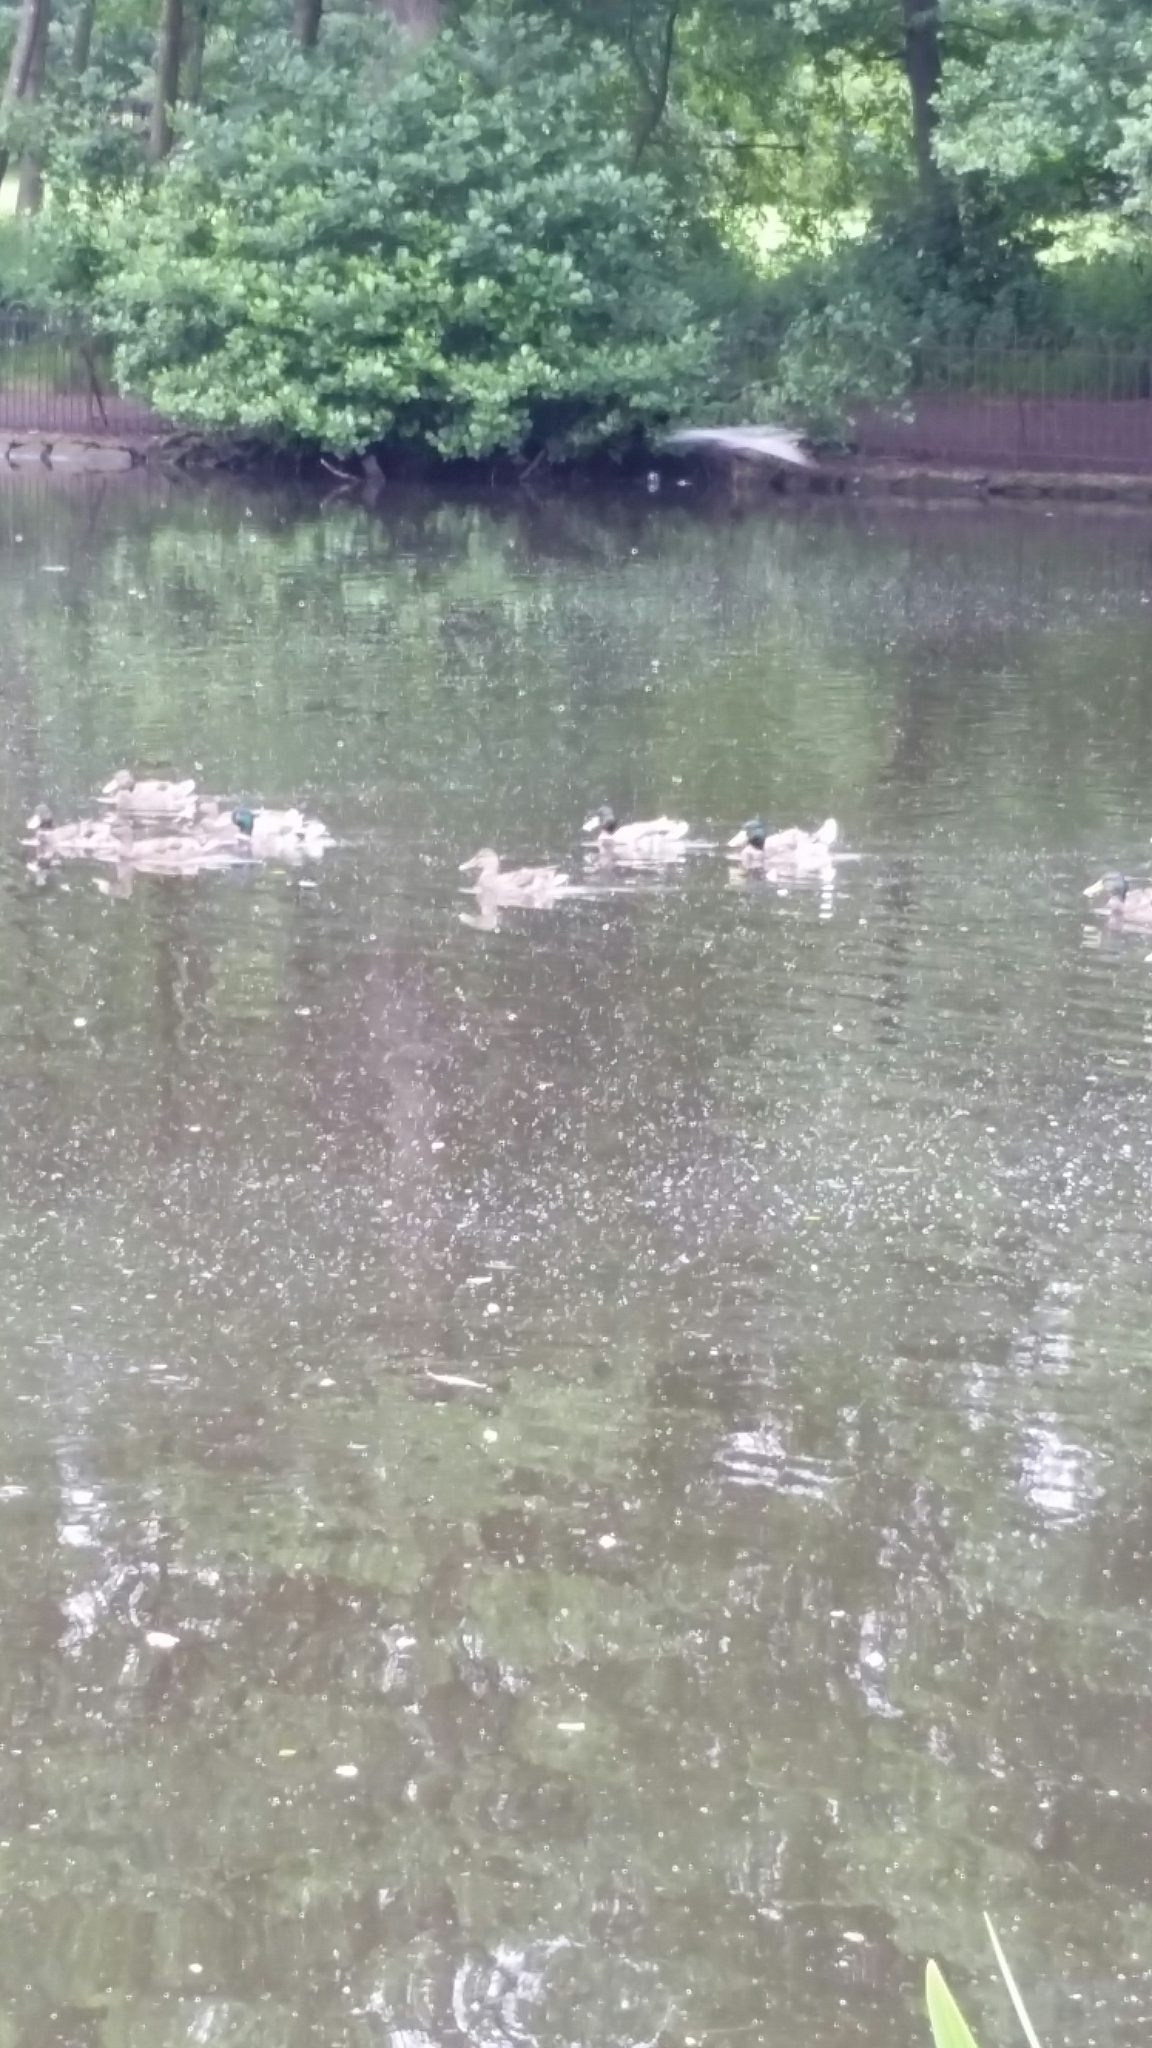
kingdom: Animalia
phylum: Chordata
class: Aves
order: Anseriformes
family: Anatidae
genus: Anas
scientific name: Anas platyrhynchos
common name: Mallard
